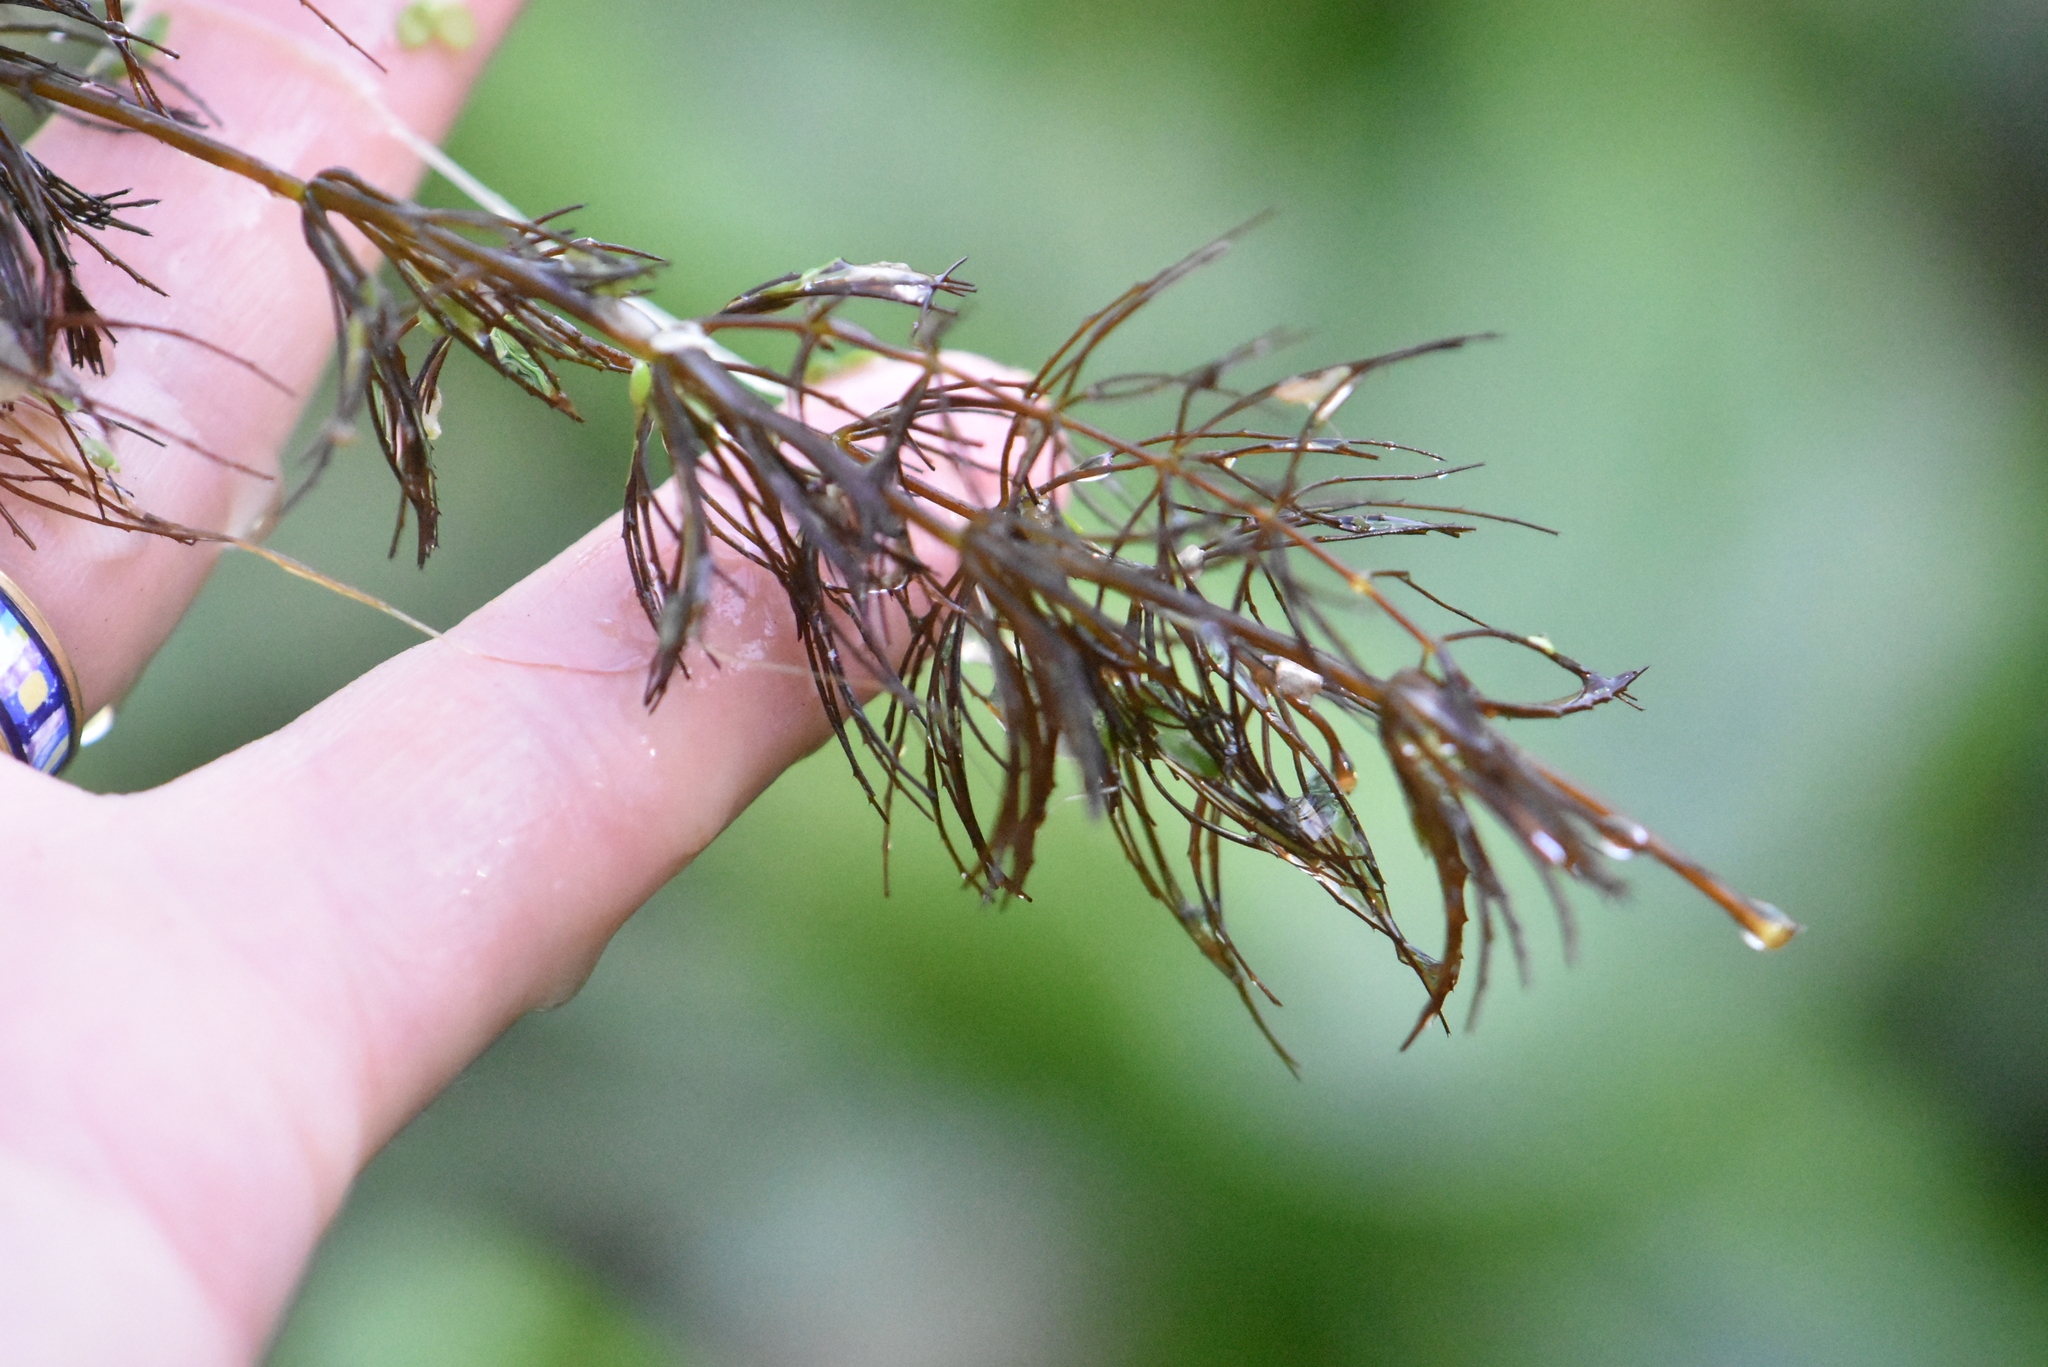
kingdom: Plantae
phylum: Tracheophyta
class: Magnoliopsida
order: Ceratophyllales
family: Ceratophyllaceae
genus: Ceratophyllum
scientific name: Ceratophyllum demersum
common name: Rigid hornwort
